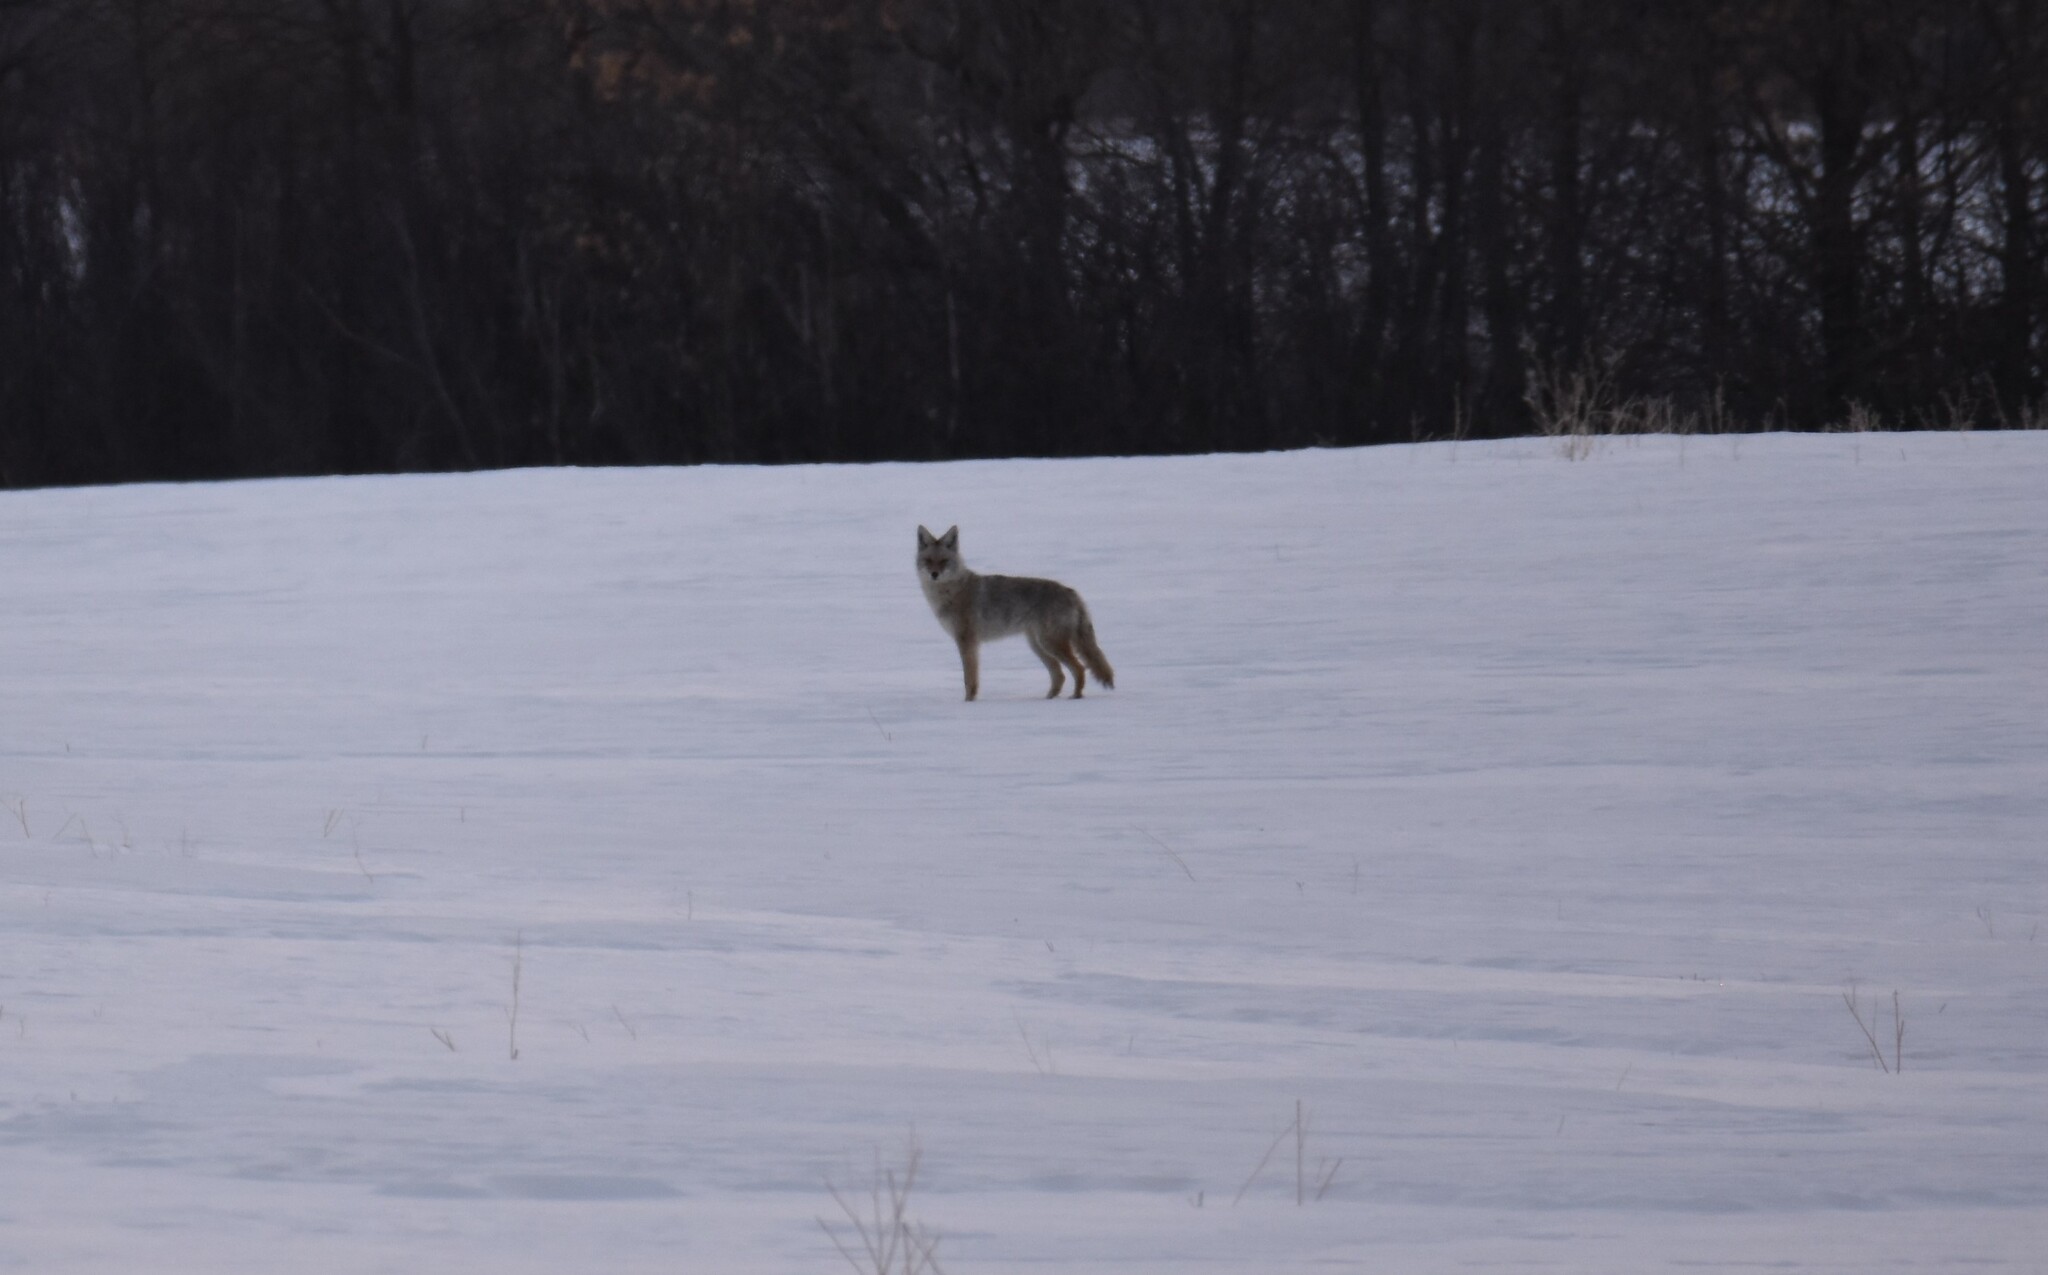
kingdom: Animalia
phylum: Chordata
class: Mammalia
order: Carnivora
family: Canidae
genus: Canis
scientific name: Canis latrans
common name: Coyote
